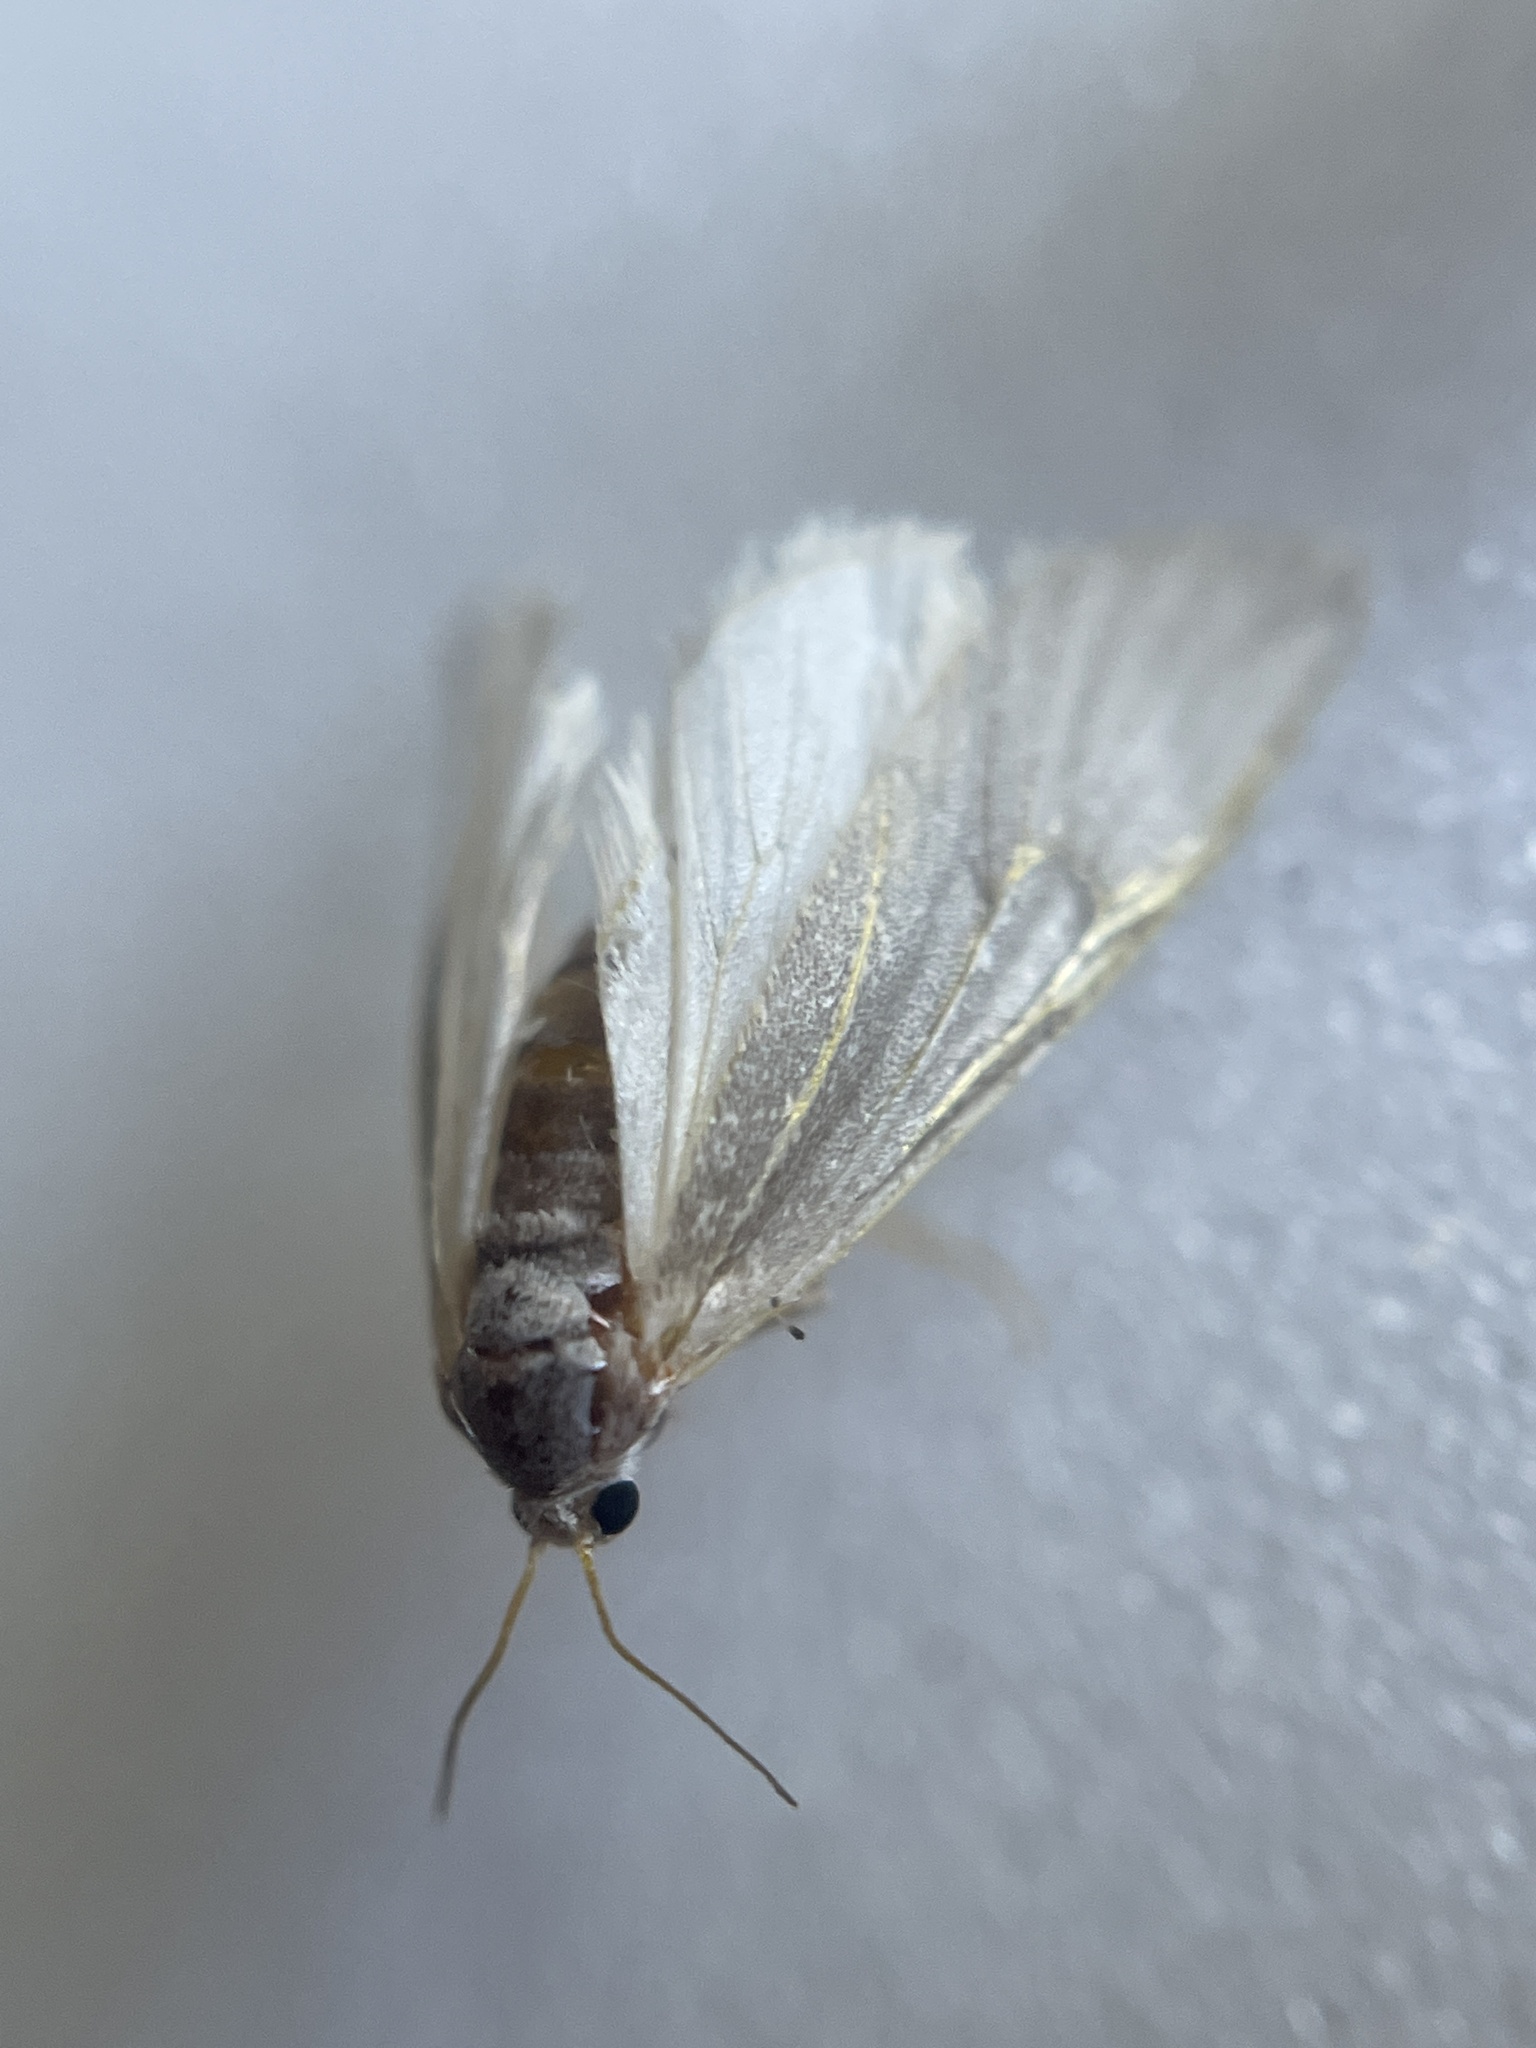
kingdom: Animalia
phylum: Arthropoda
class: Insecta
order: Lepidoptera
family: Crambidae
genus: Acentria
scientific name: Acentria ephemerella
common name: European water moth
